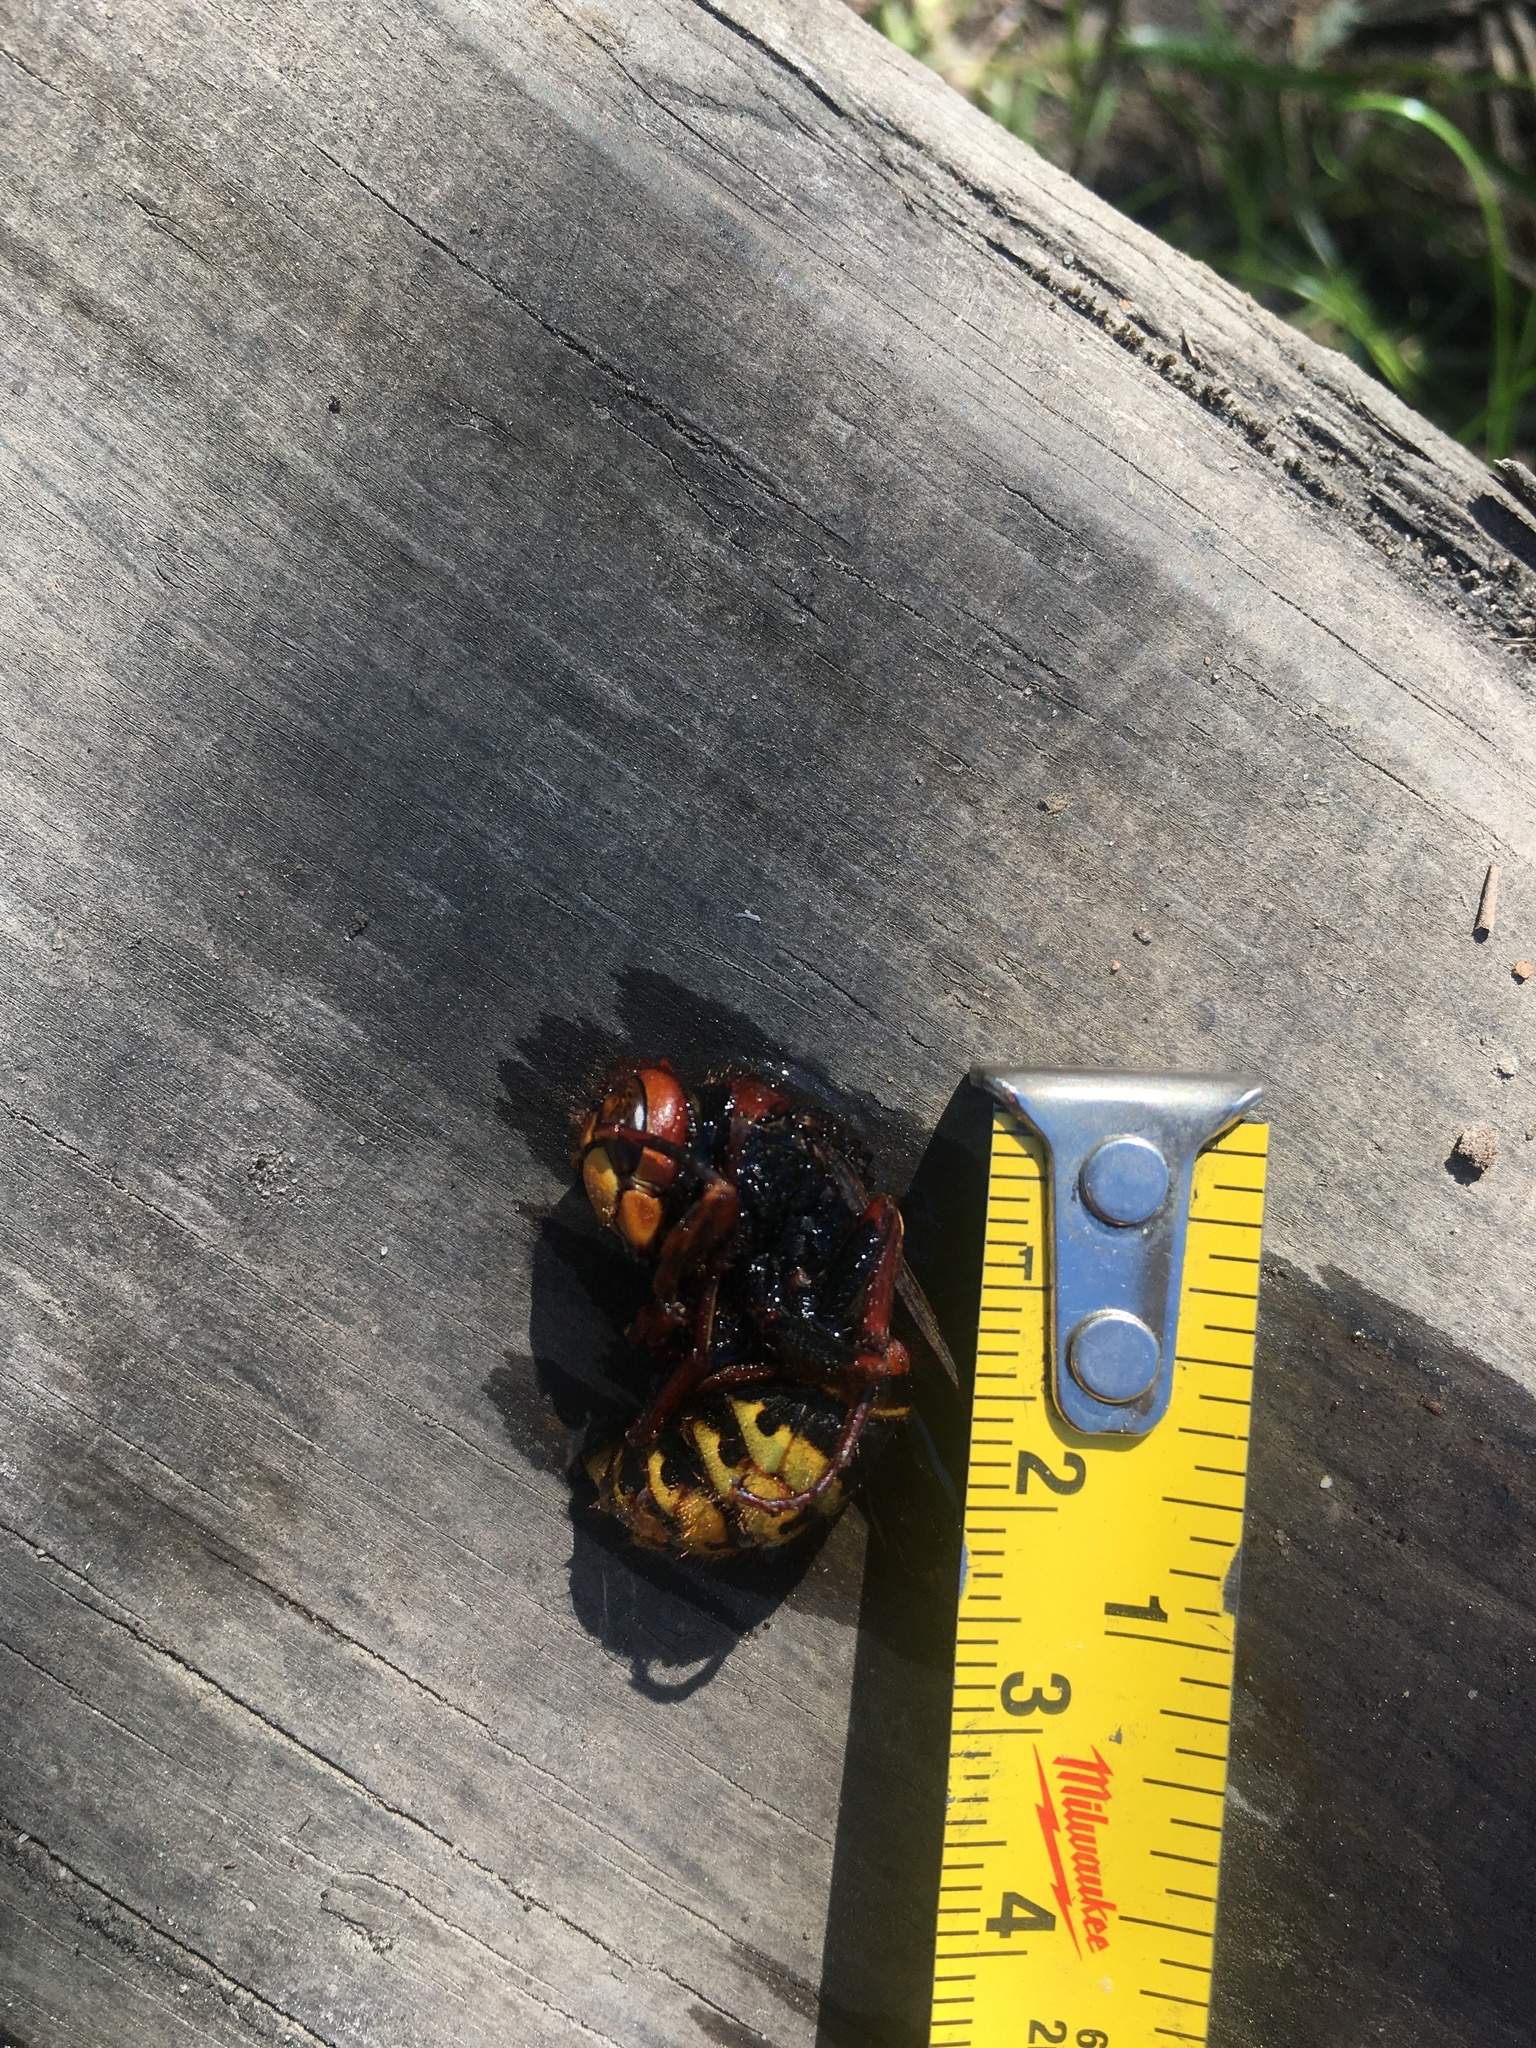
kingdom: Animalia
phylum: Arthropoda
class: Insecta
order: Hymenoptera
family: Vespidae
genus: Vespa
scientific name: Vespa crabro
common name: Hornet
